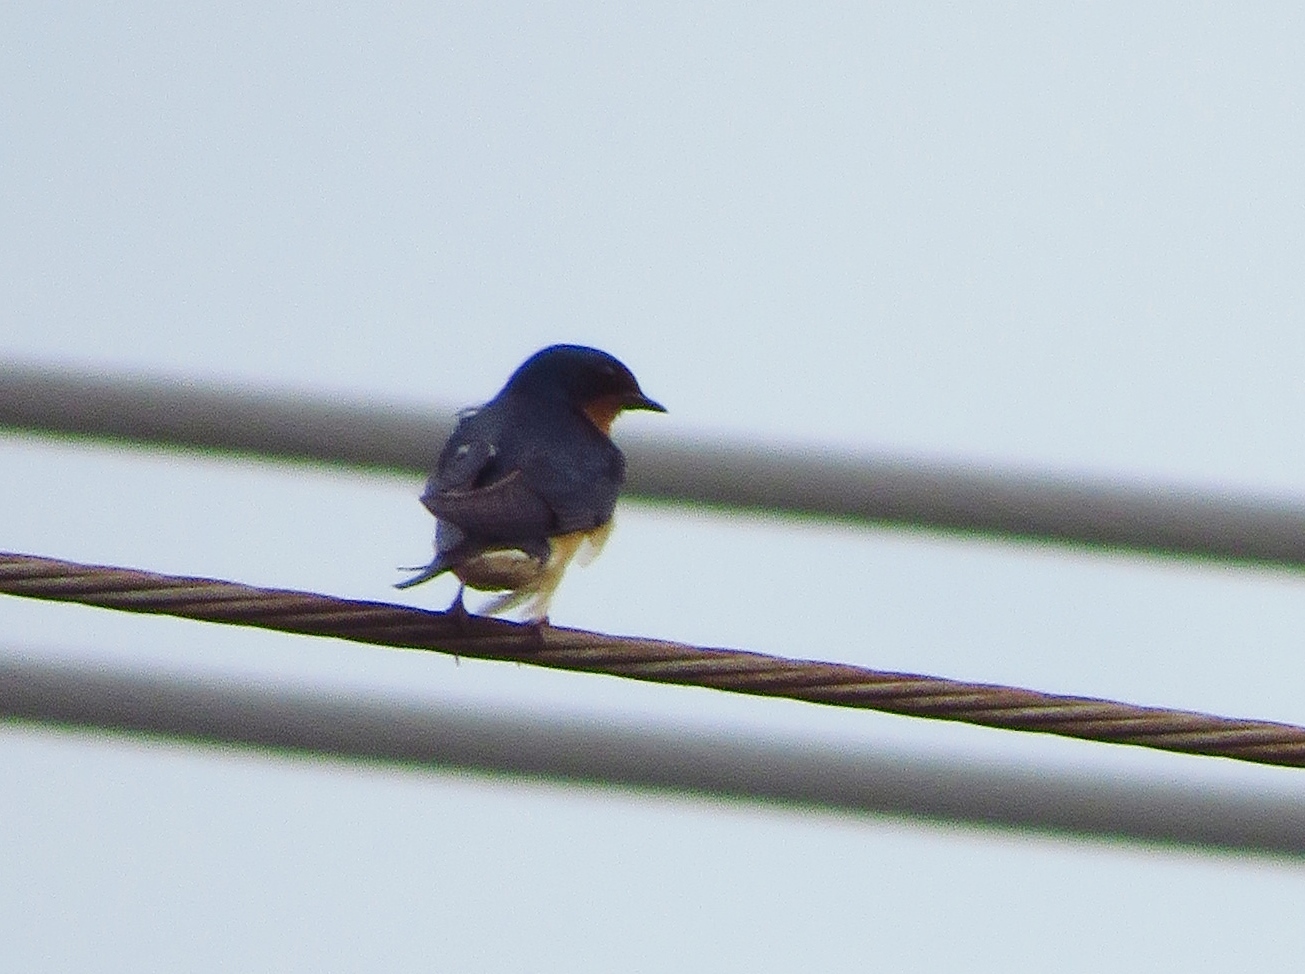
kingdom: Animalia
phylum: Chordata
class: Aves
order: Passeriformes
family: Hirundinidae
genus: Hirundo
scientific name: Hirundo rustica
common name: Barn swallow
